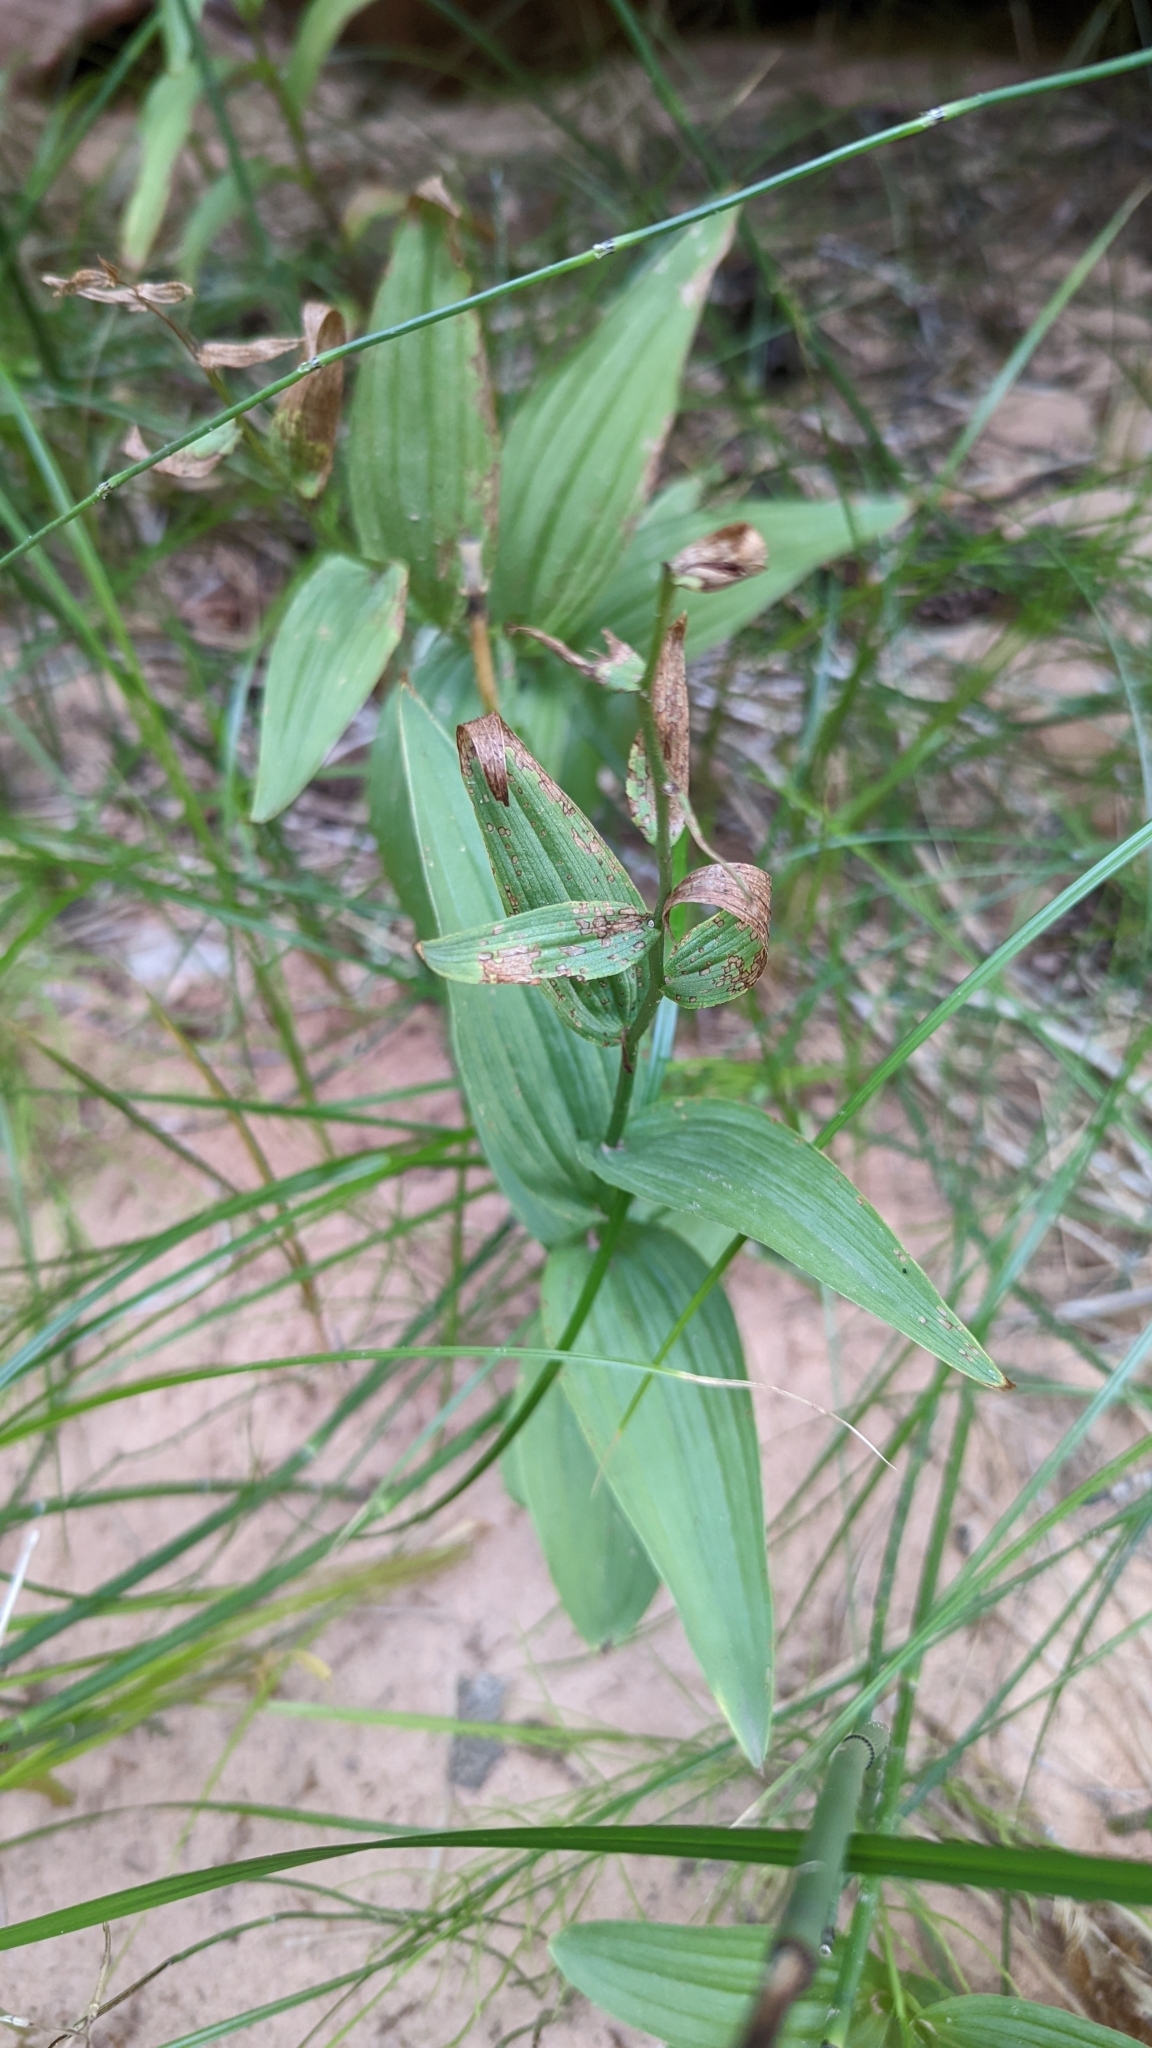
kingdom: Plantae
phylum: Tracheophyta
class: Liliopsida
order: Asparagales
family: Orchidaceae
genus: Epipactis
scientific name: Epipactis gigantea
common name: Chatterbox
